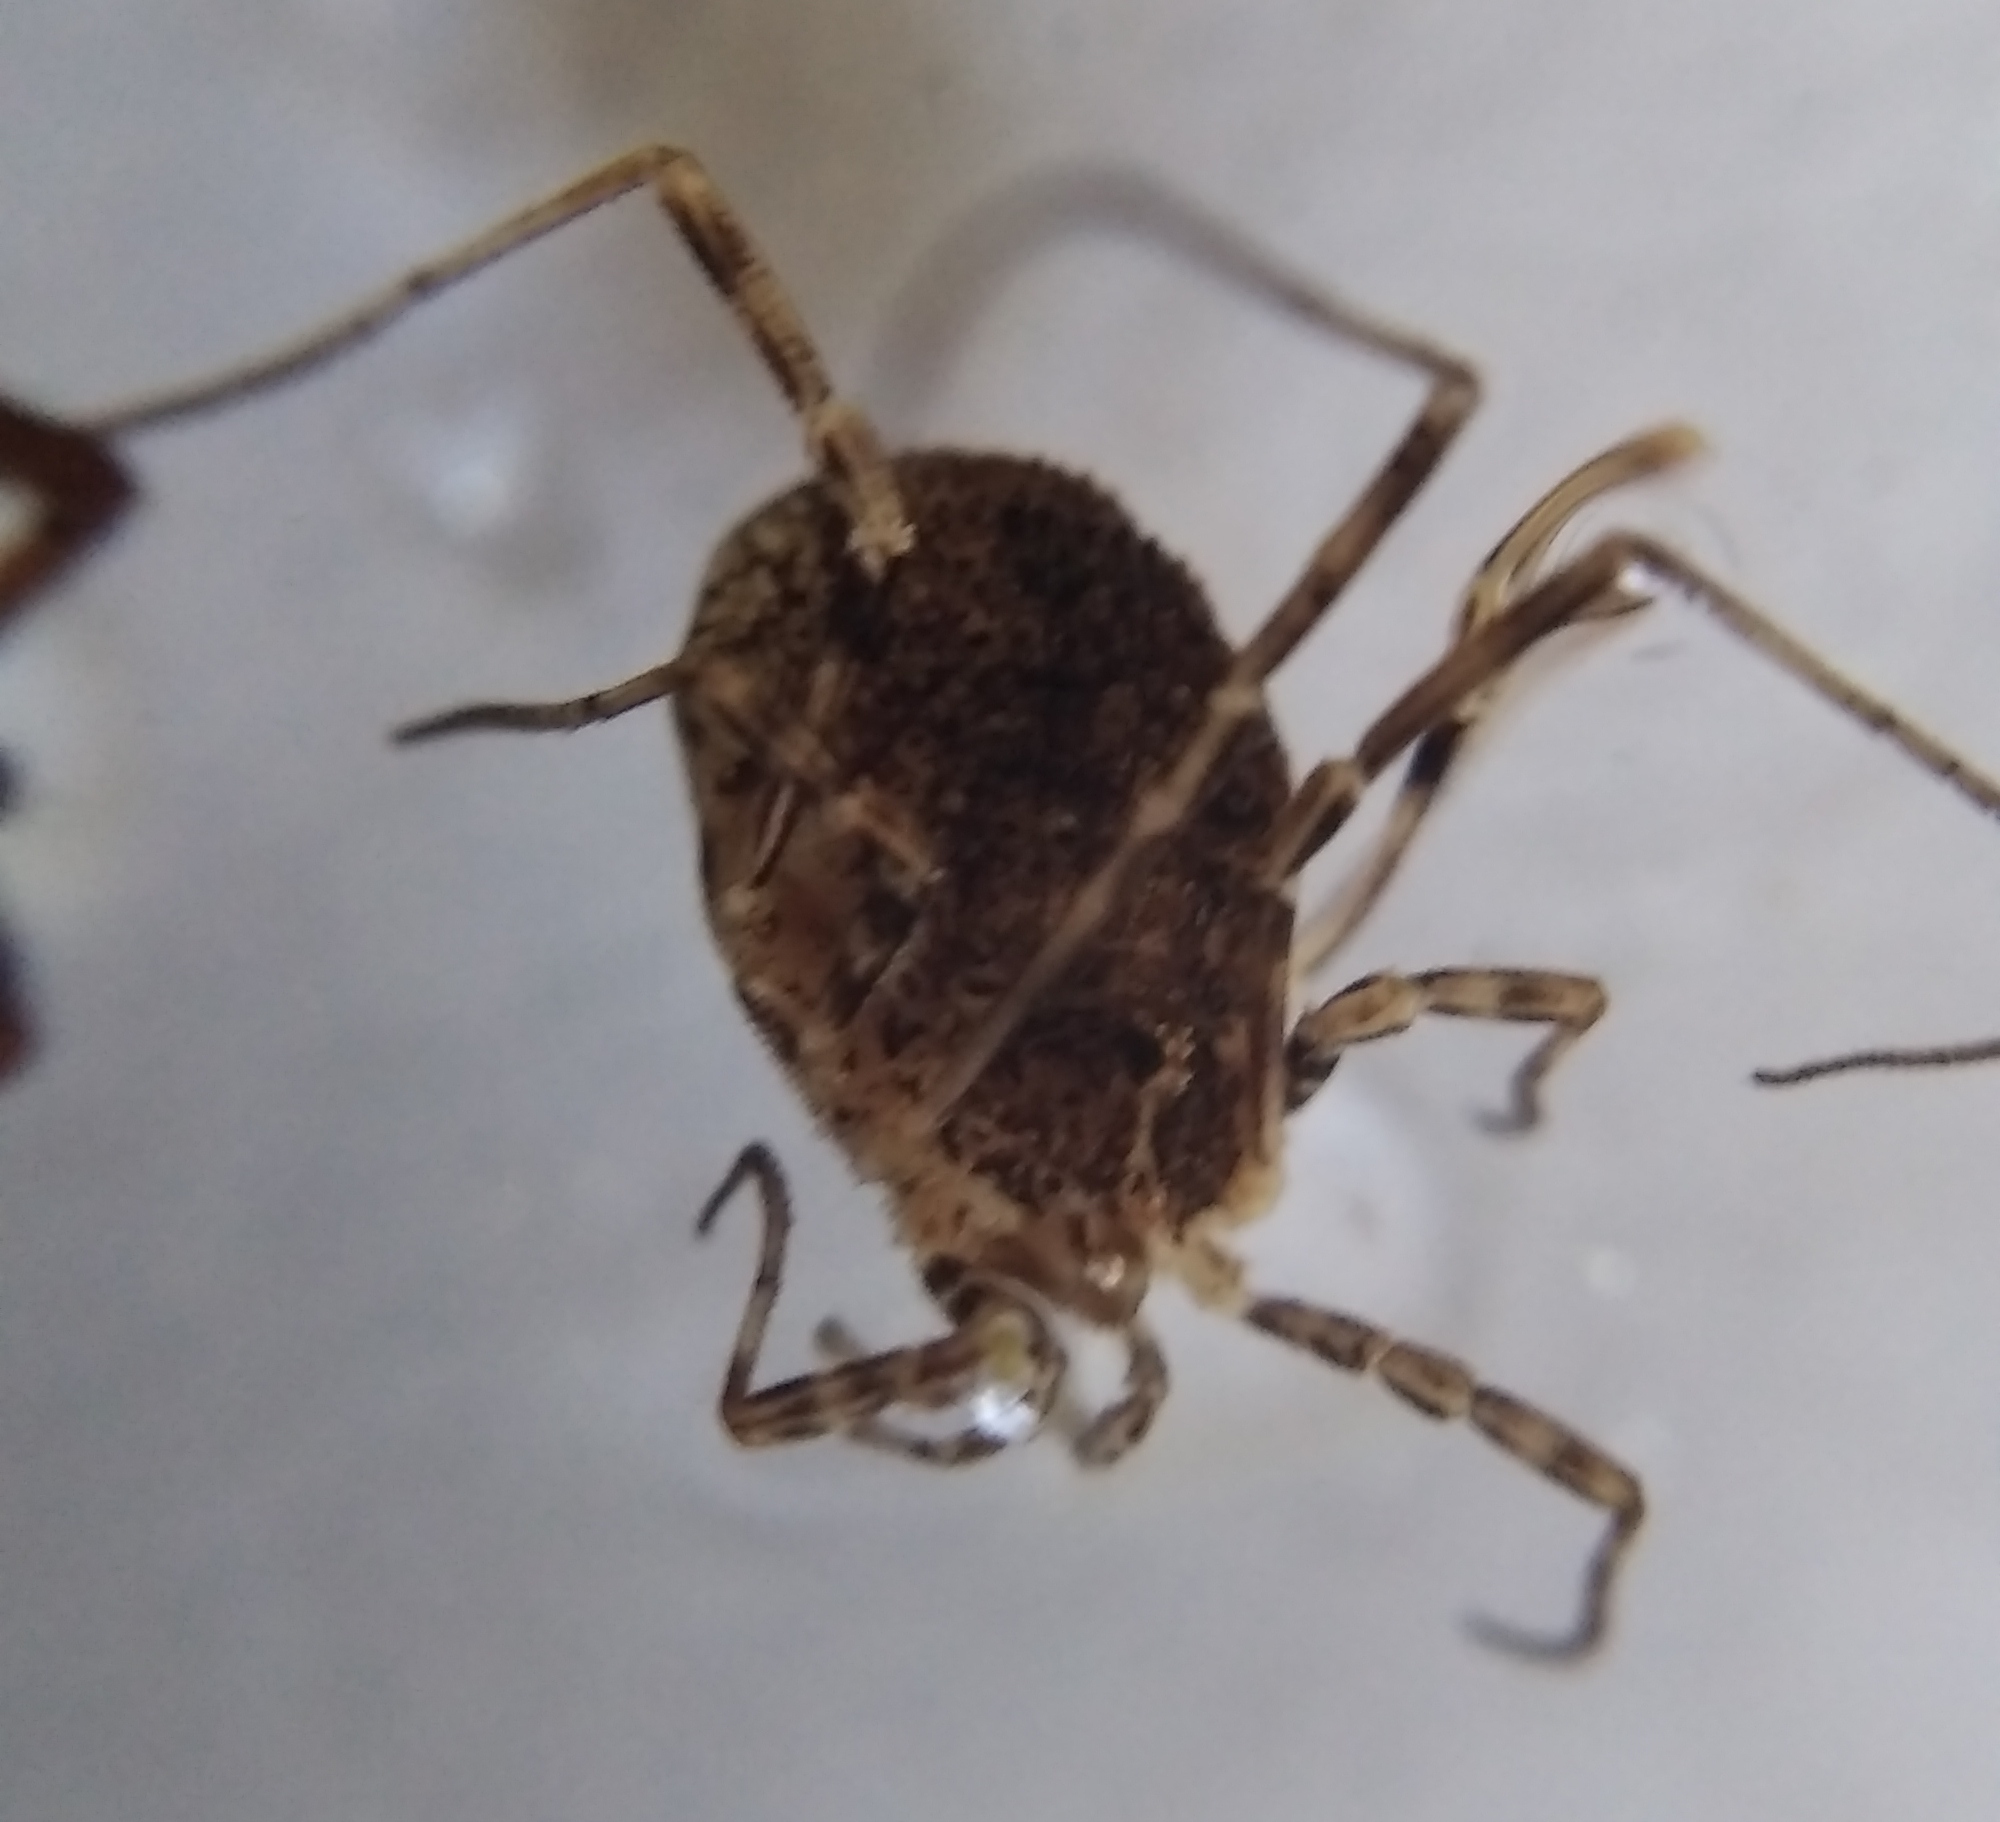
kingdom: Animalia
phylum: Arthropoda
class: Arachnida
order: Opiliones
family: Phalangiidae
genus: Odiellus
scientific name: Odiellus lendlii
